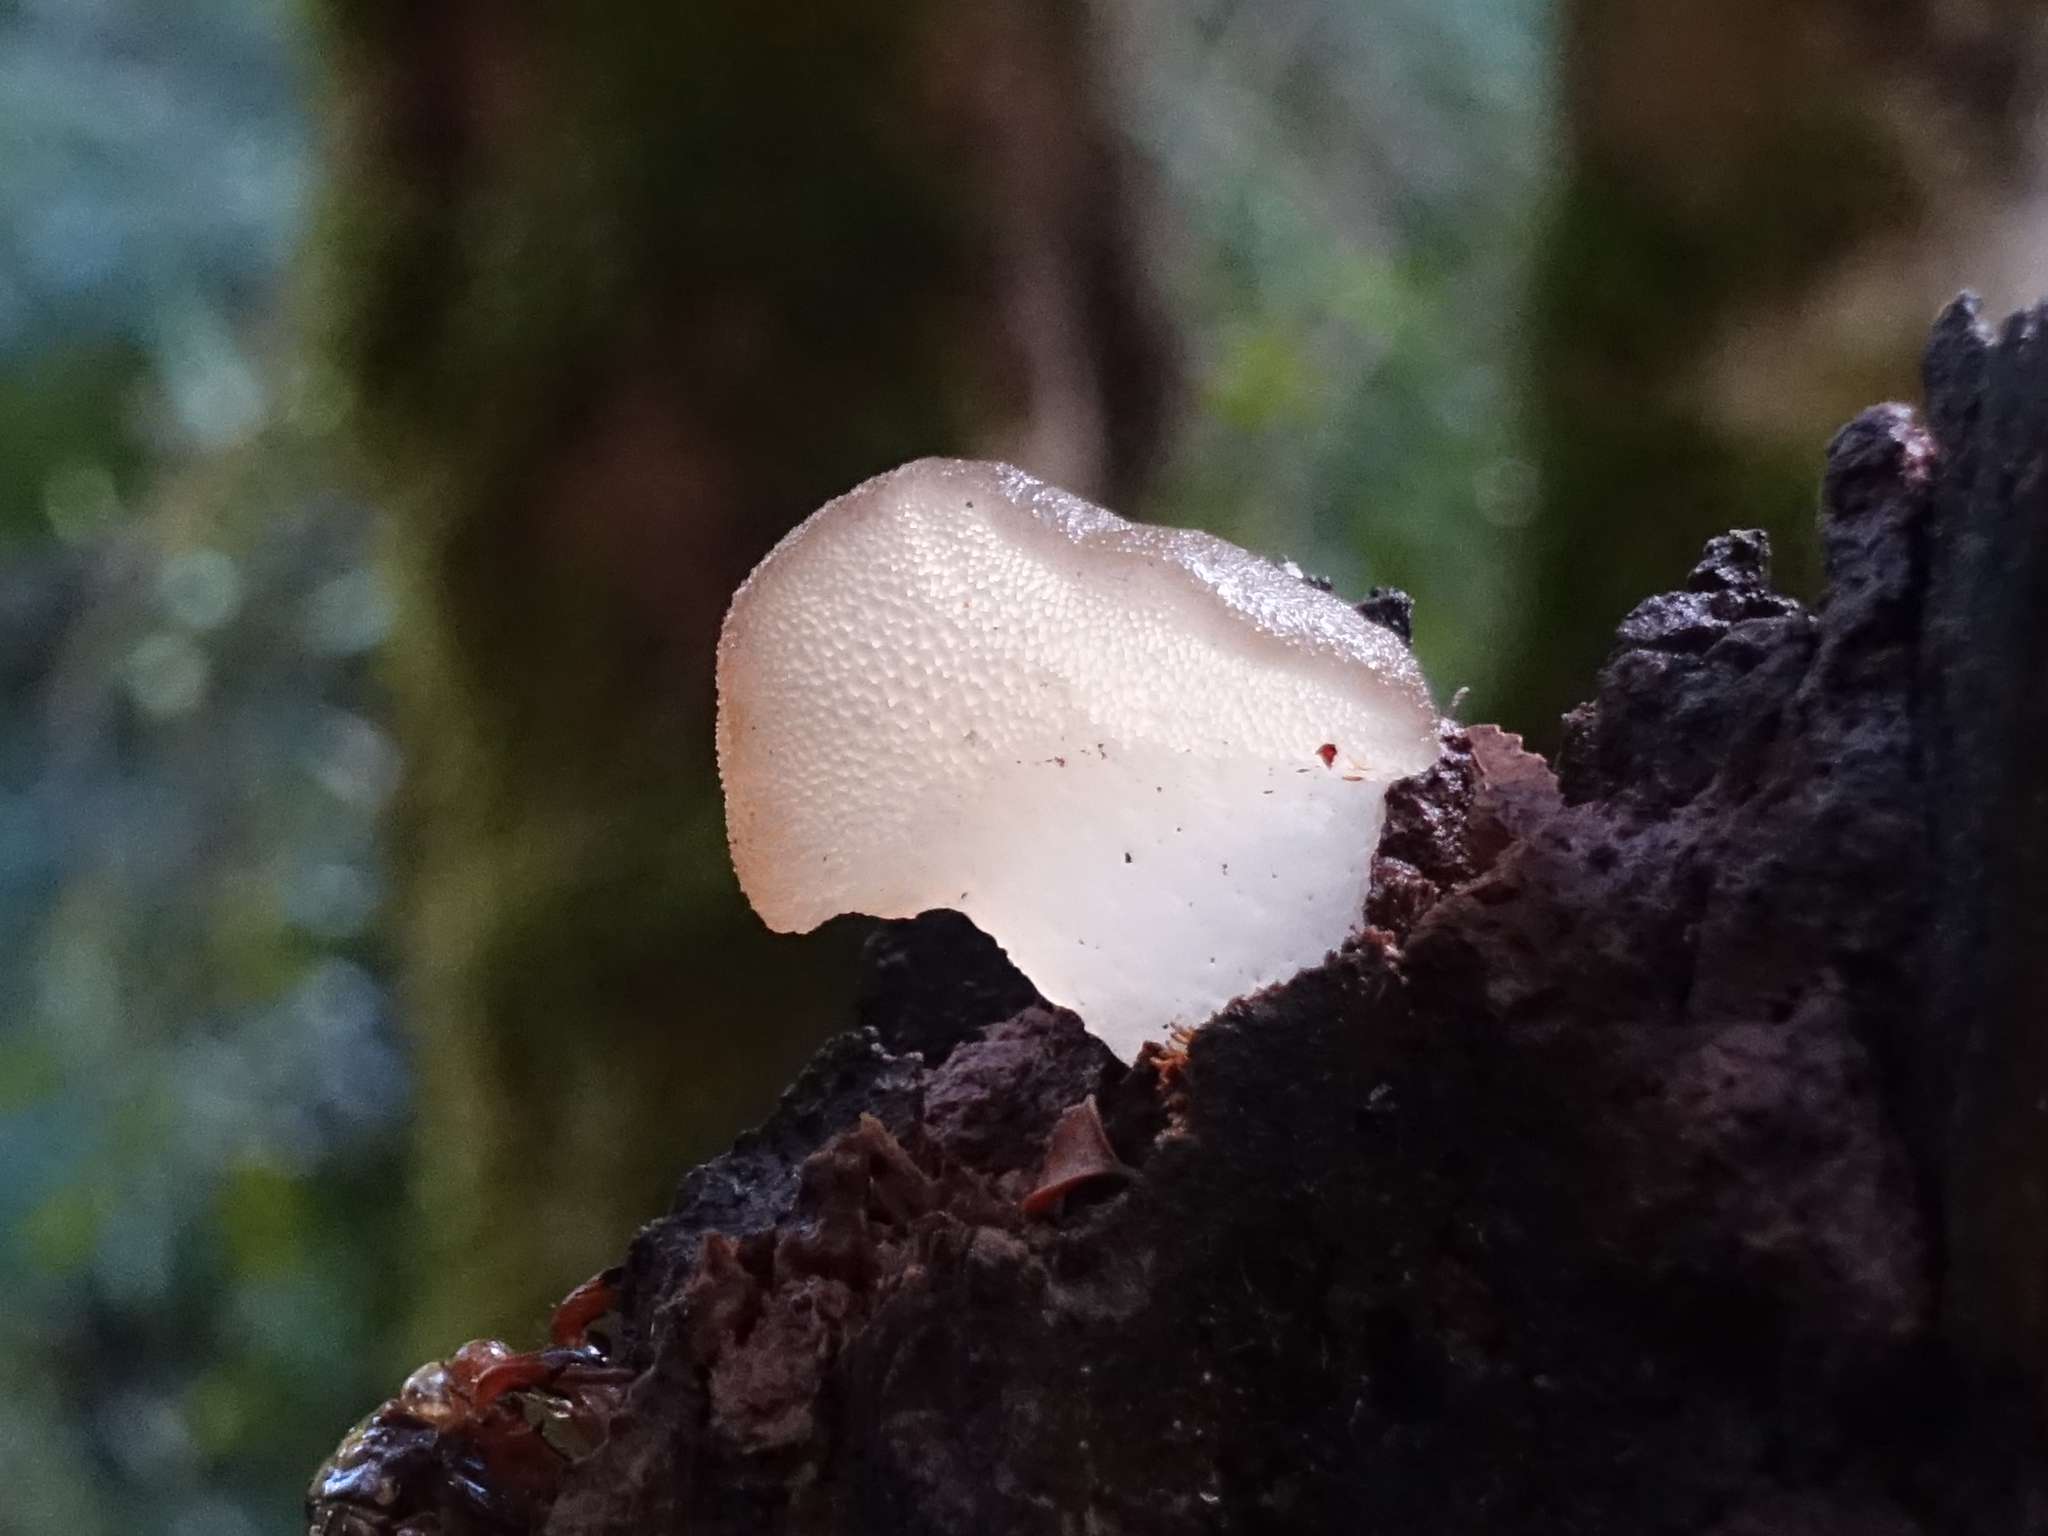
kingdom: Fungi
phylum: Basidiomycota
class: Agaricomycetes
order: Auriculariales
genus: Pseudohydnum
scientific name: Pseudohydnum gelatinosum
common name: Jelly tongue
